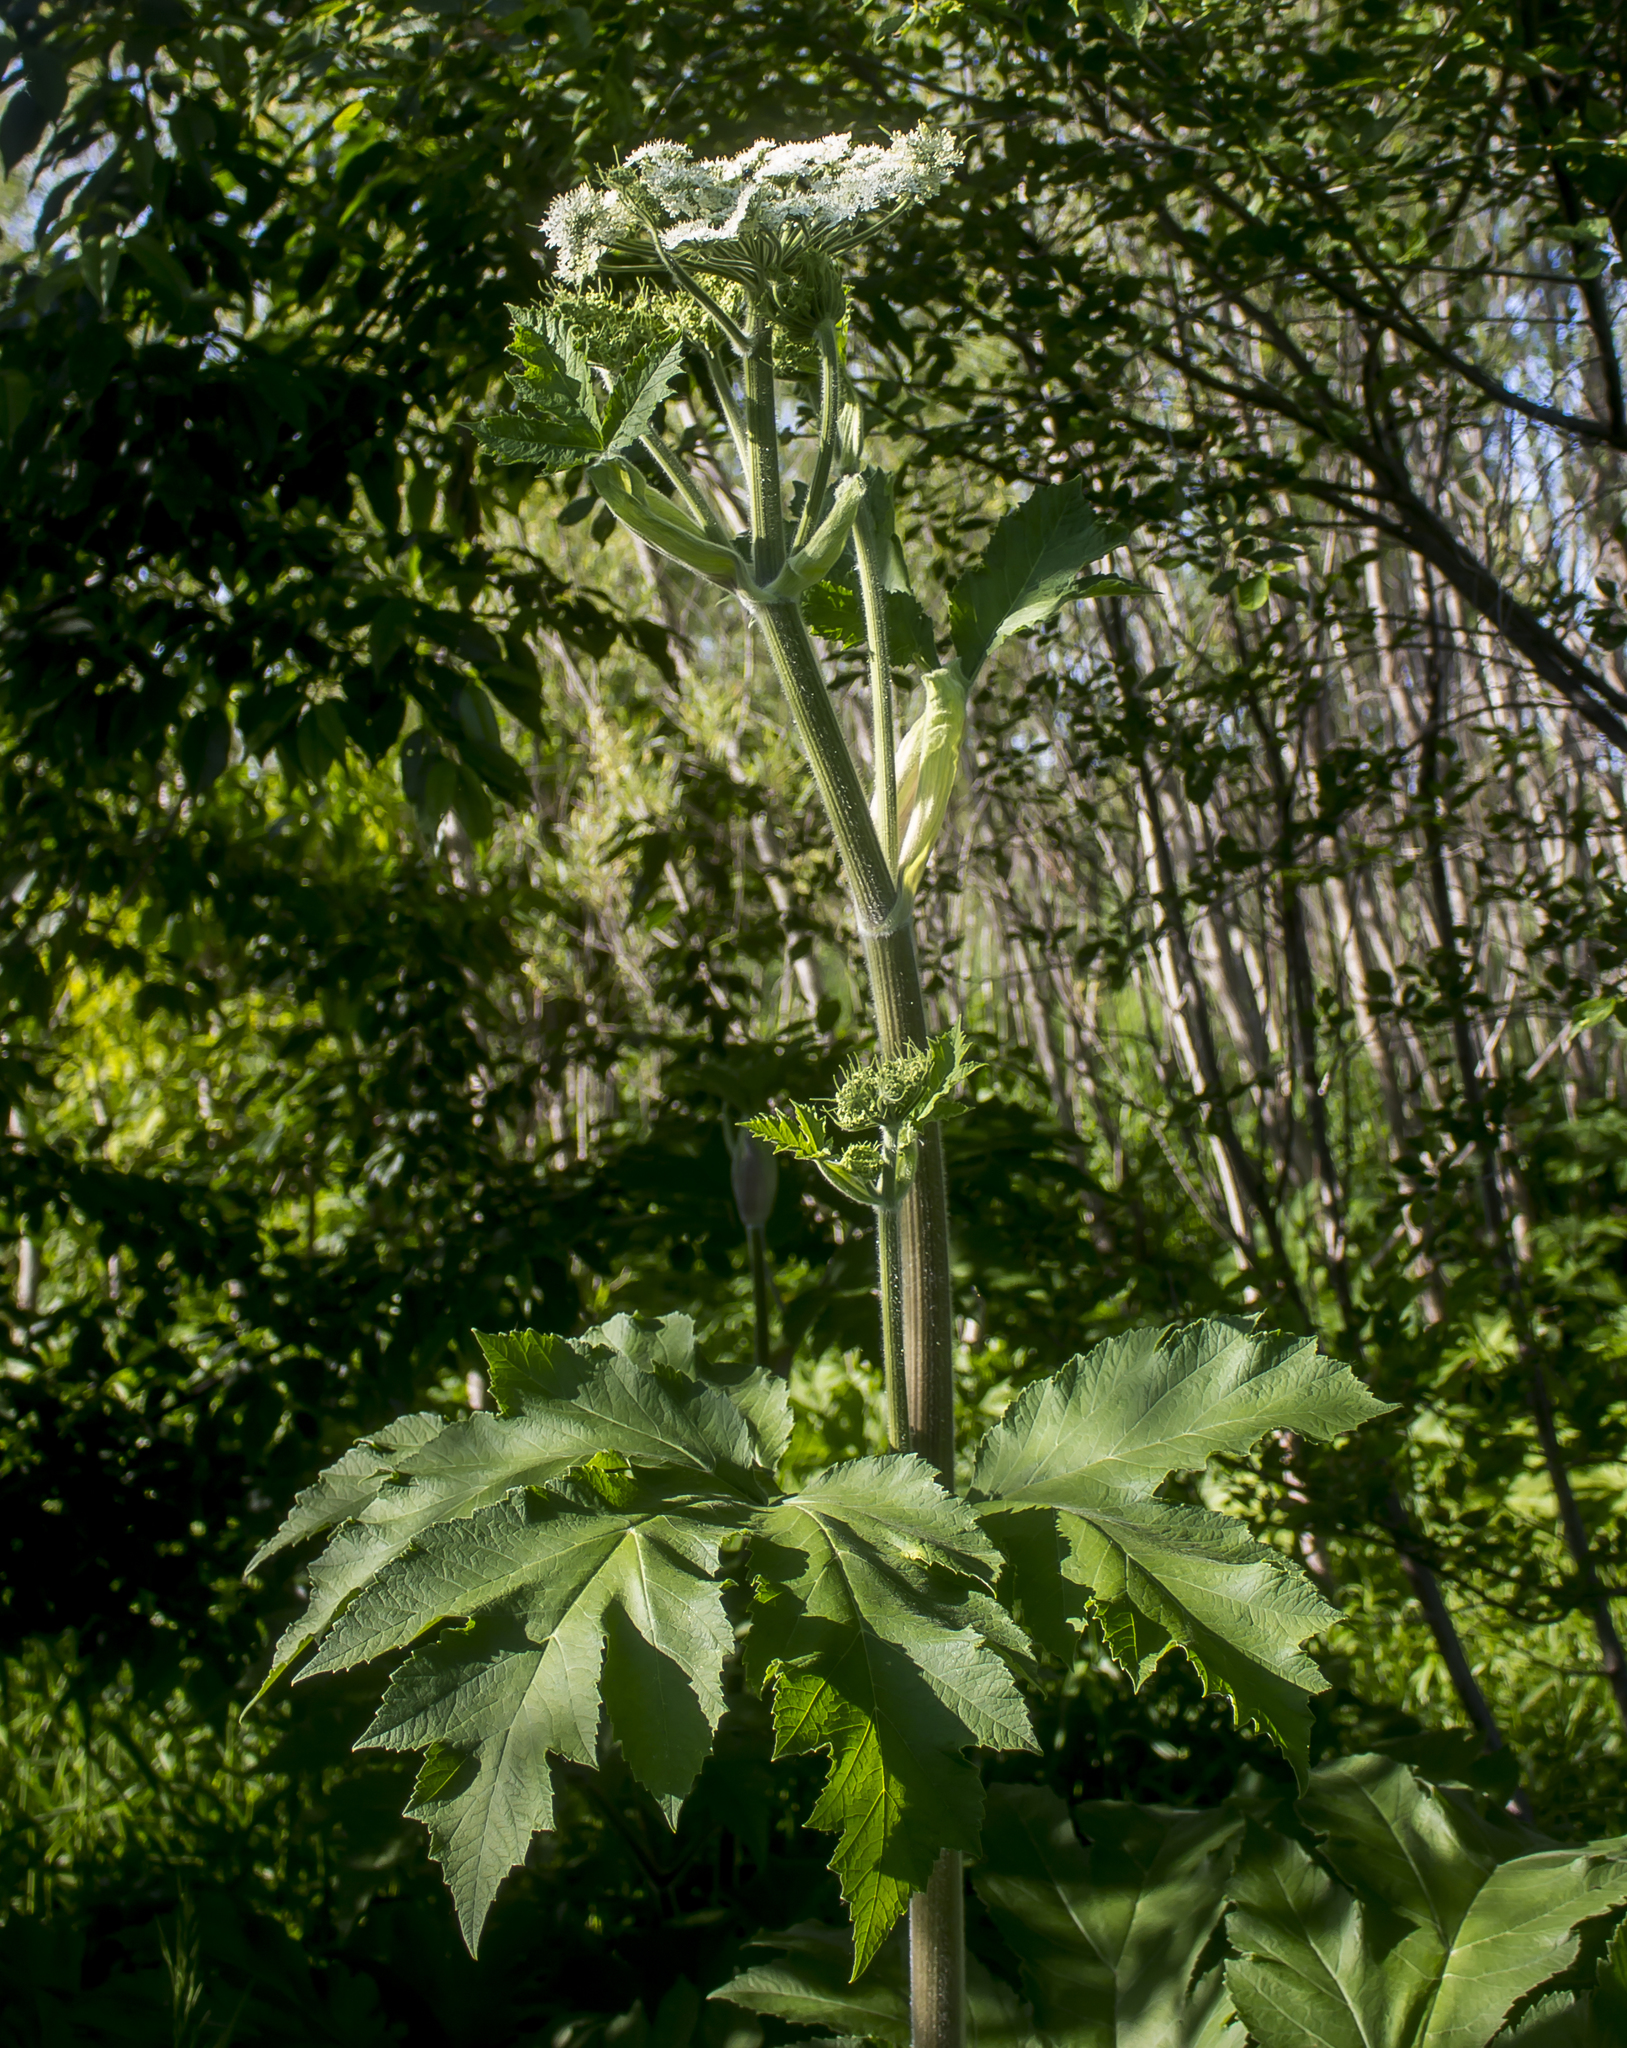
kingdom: Plantae
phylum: Tracheophyta
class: Magnoliopsida
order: Apiales
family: Apiaceae
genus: Heracleum
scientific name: Heracleum maximum
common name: American cow parsnip
